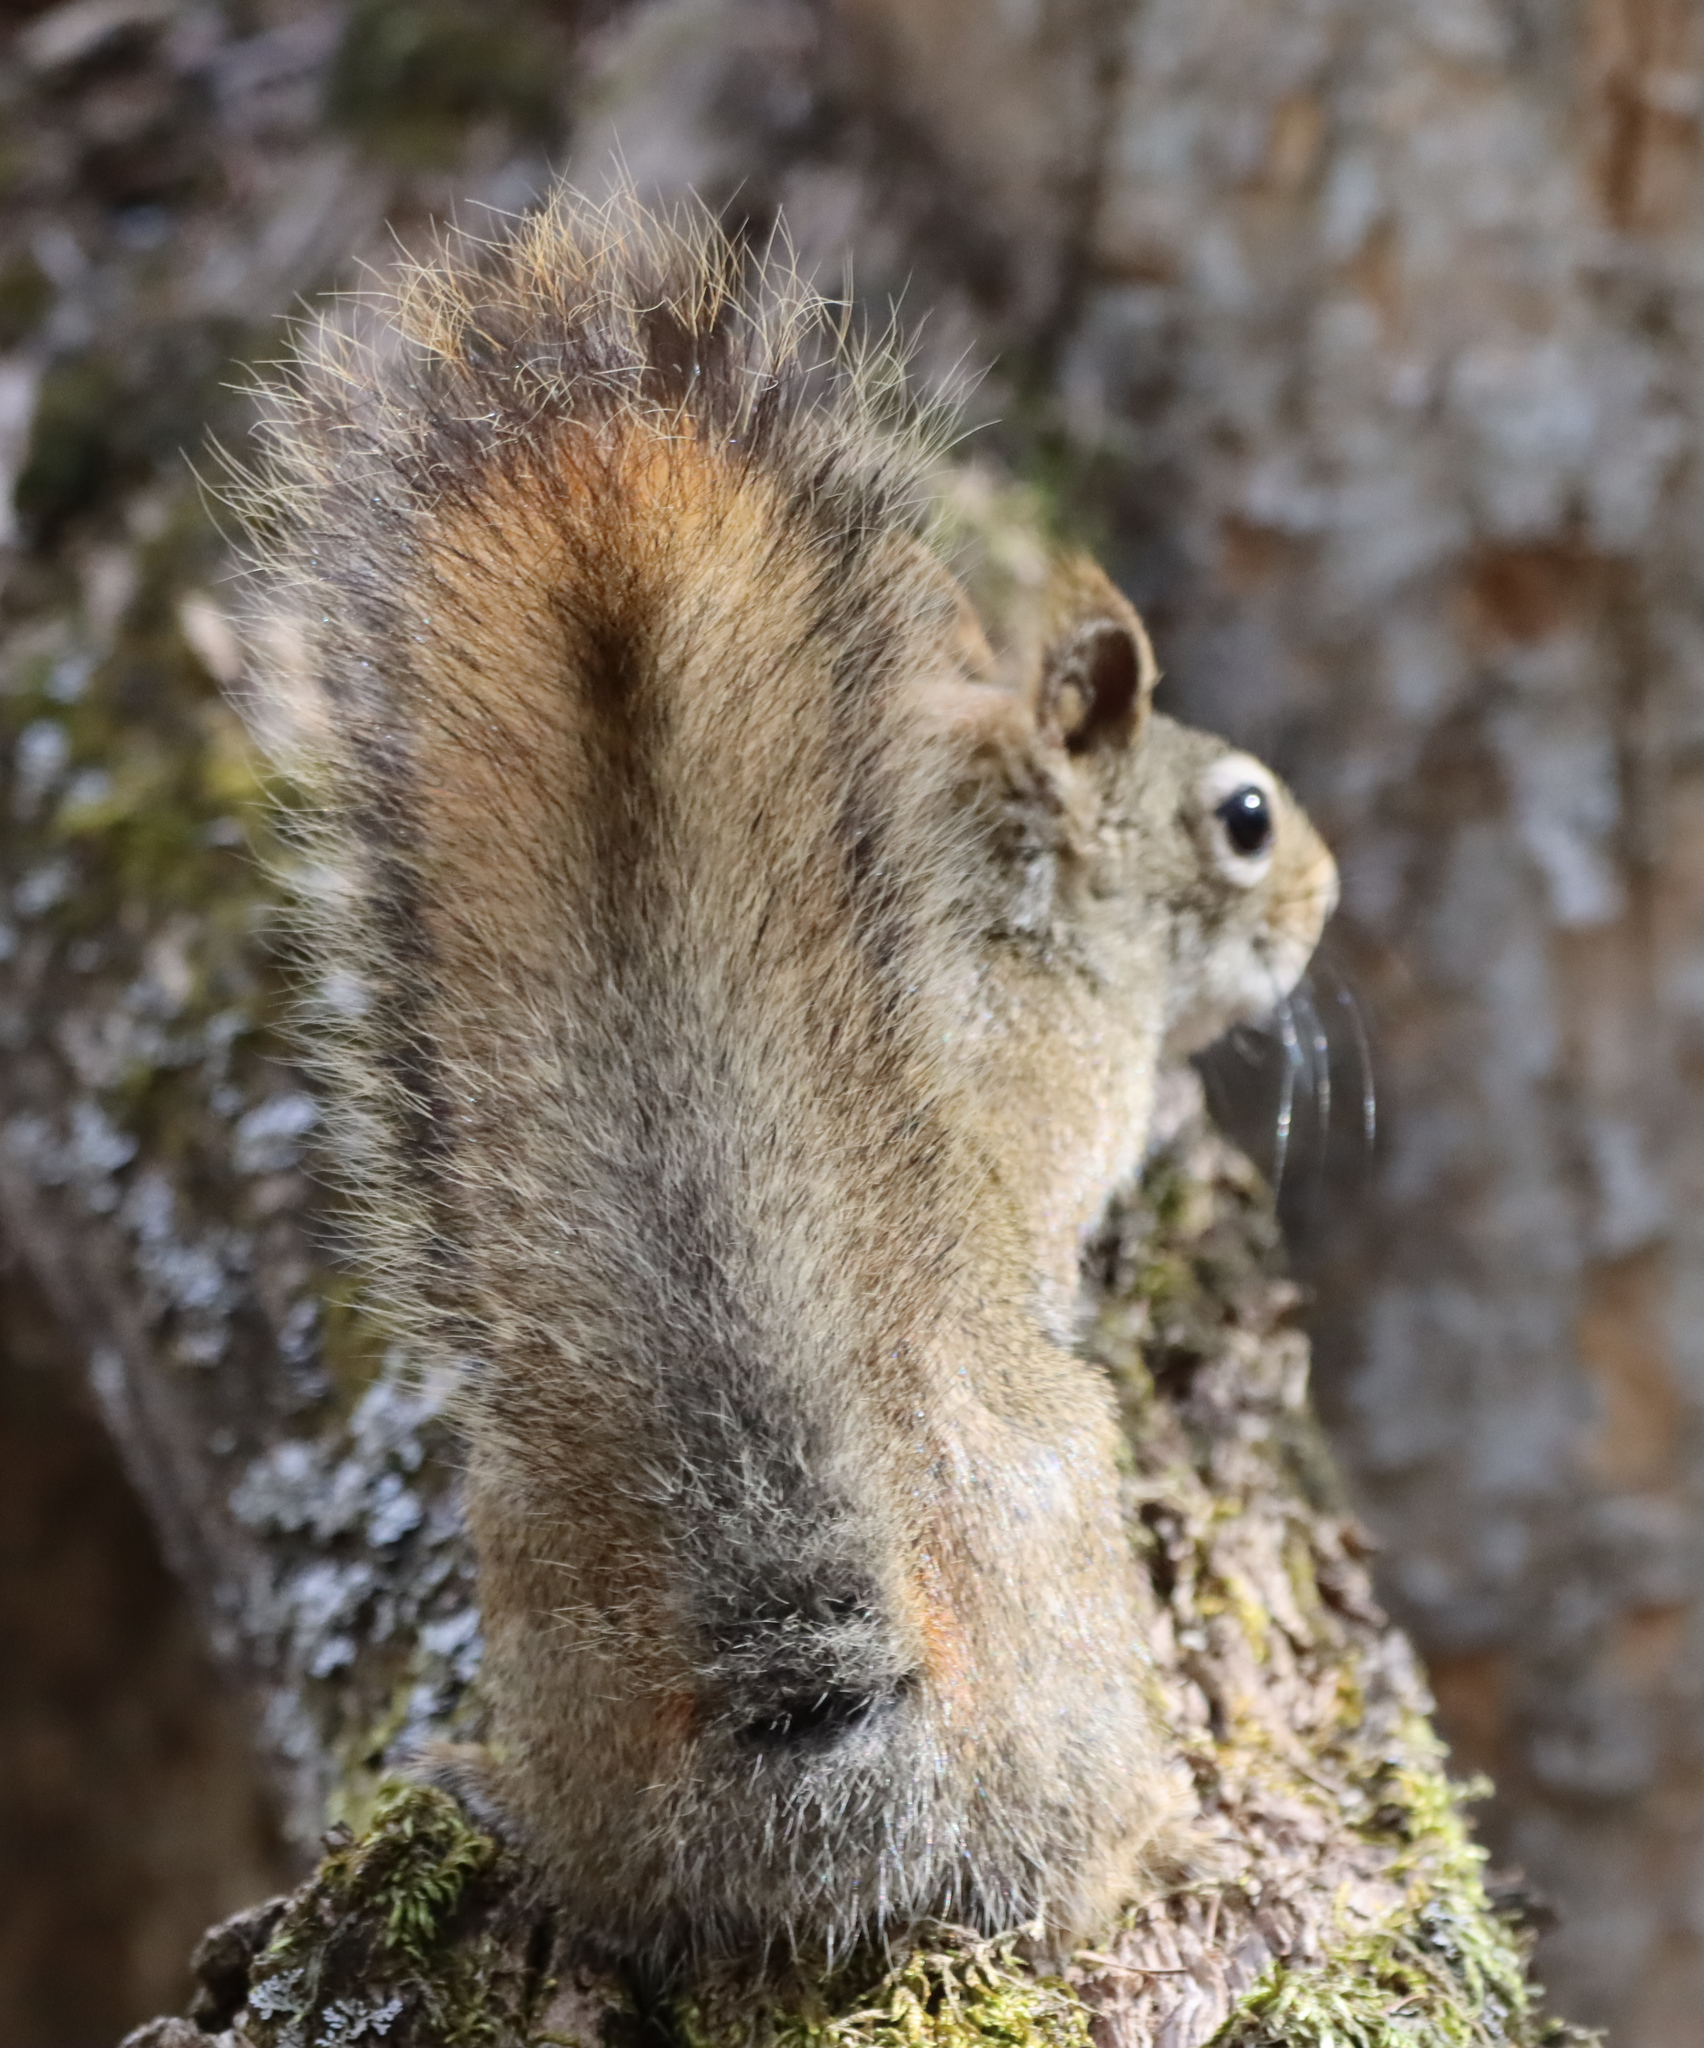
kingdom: Animalia
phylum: Chordata
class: Mammalia
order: Rodentia
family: Sciuridae
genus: Tamiasciurus
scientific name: Tamiasciurus hudsonicus
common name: Red squirrel
